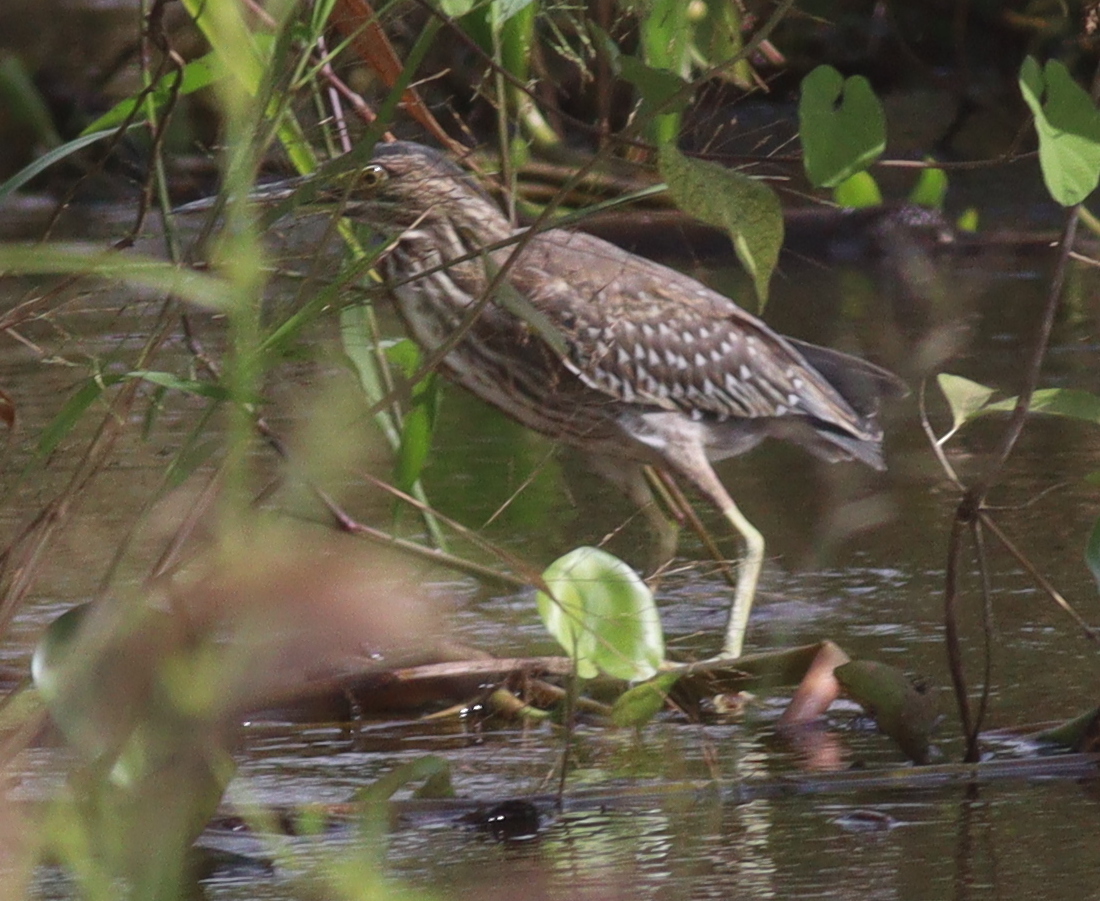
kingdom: Animalia
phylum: Chordata
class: Aves
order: Pelecaniformes
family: Ardeidae
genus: Butorides
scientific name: Butorides striata
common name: Striated heron
